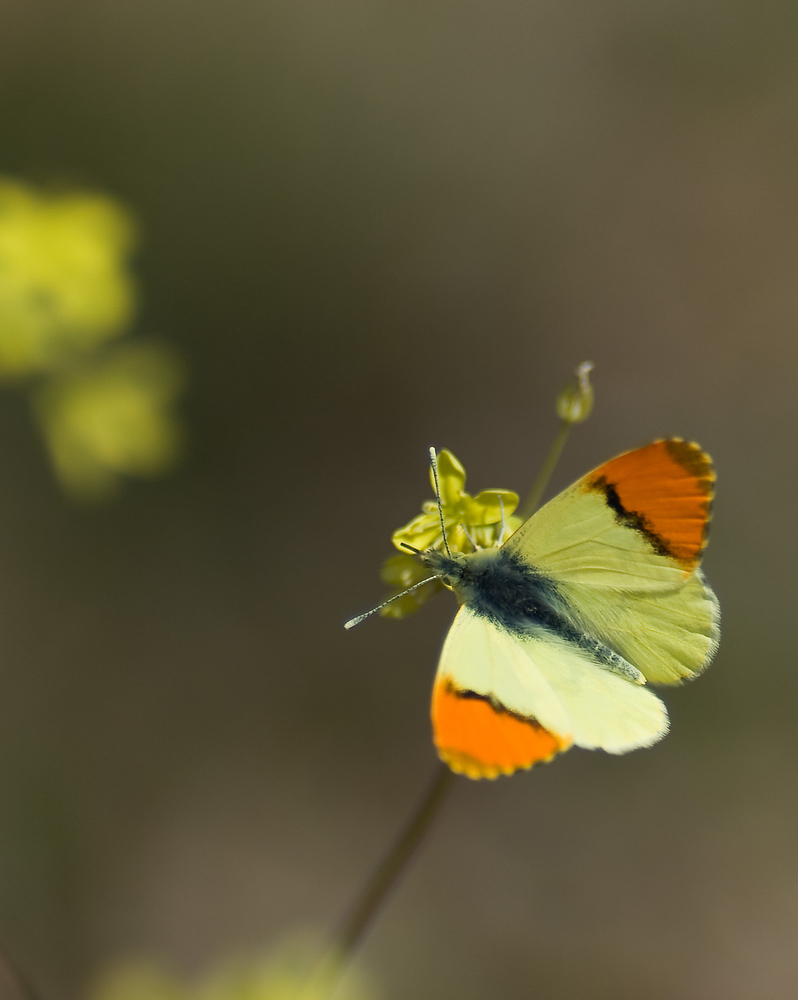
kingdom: Animalia
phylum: Arthropoda
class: Insecta
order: Lepidoptera
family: Pieridae
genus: Anthocharis
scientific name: Anthocharis euphenoides
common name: Provence orange-tip
